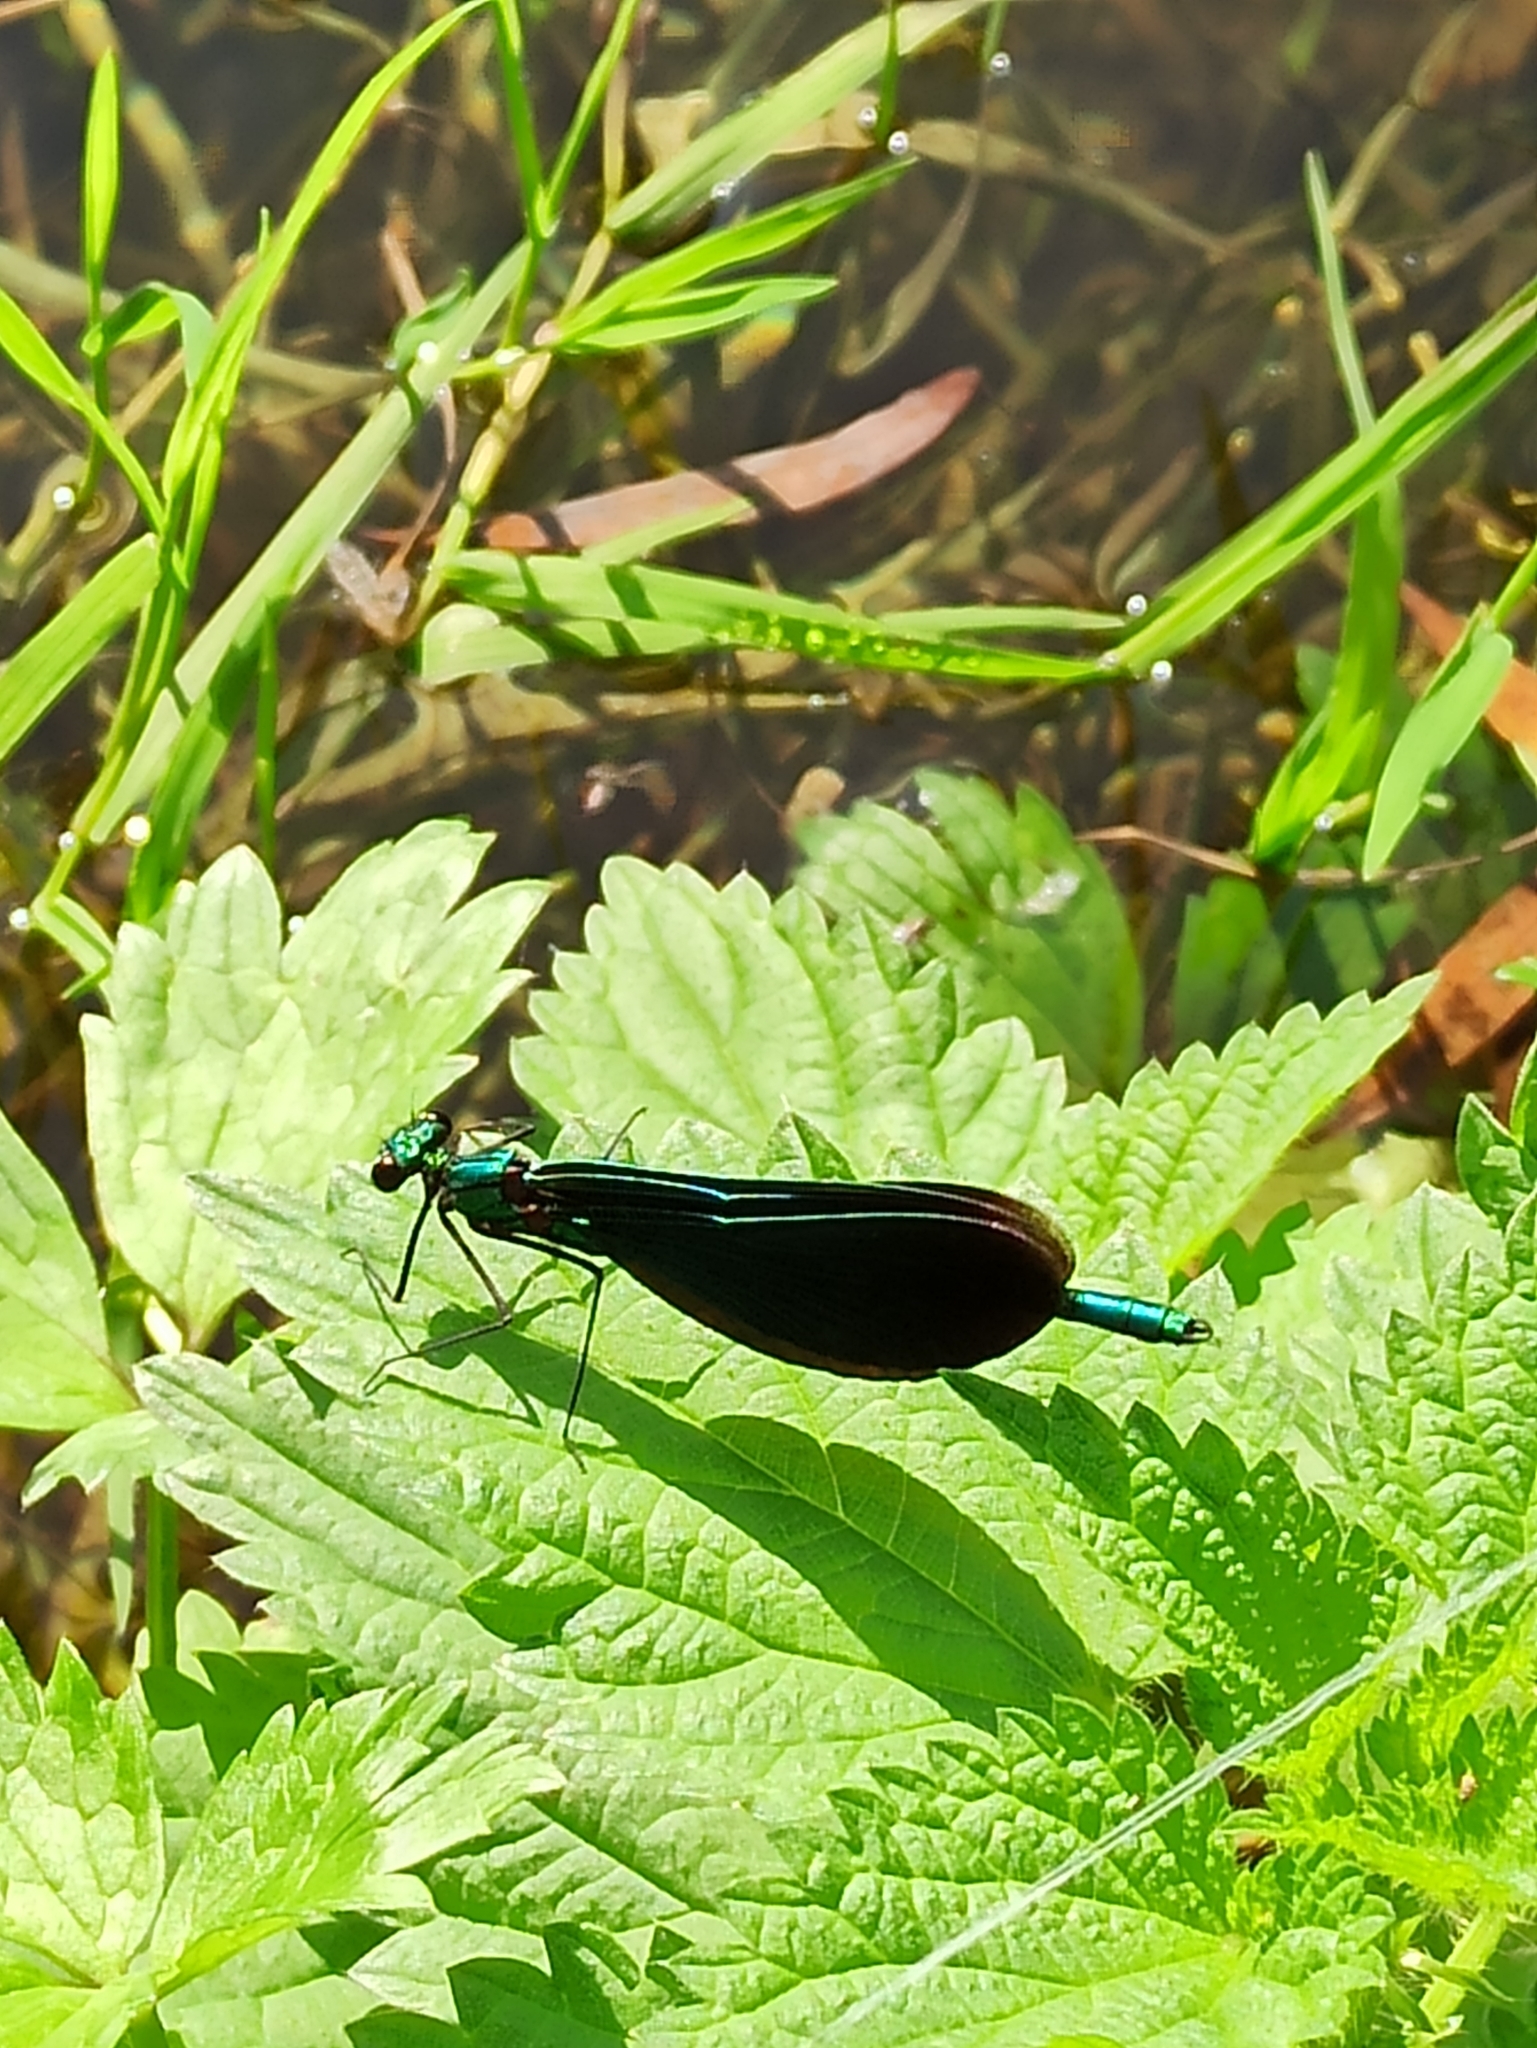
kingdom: Animalia
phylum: Arthropoda
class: Insecta
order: Odonata
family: Calopterygidae
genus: Calopteryx
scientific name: Calopteryx virgo
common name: Beautiful demoiselle
